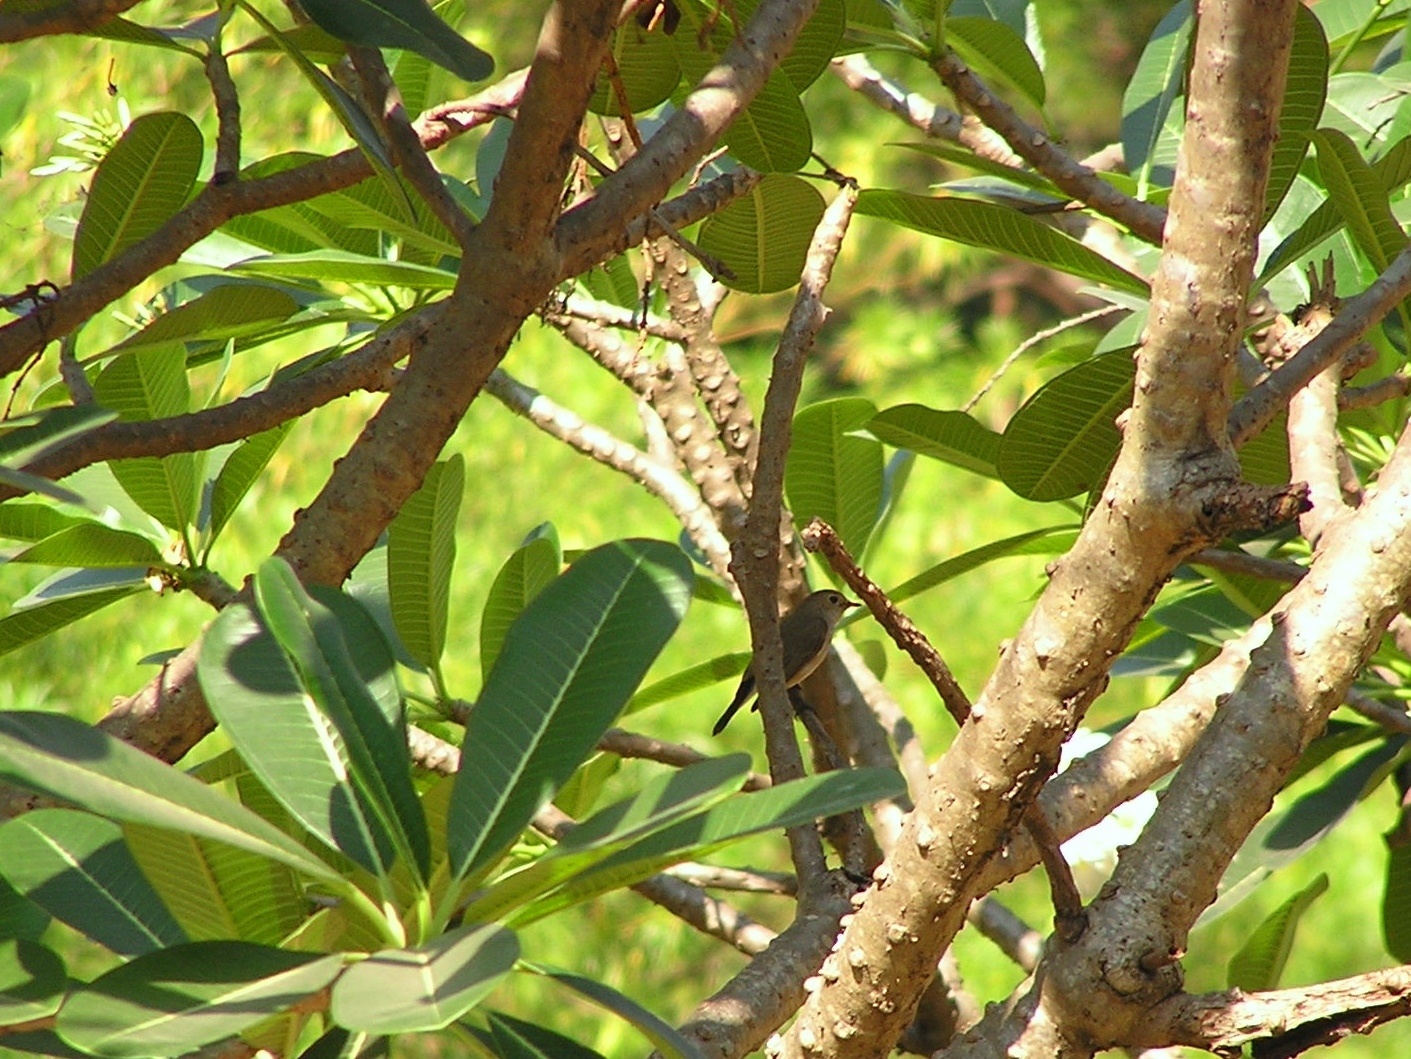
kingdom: Animalia
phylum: Chordata
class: Aves
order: Passeriformes
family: Muscicapidae
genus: Ficedula
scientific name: Ficedula albicilla
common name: Taiga flycatcher
